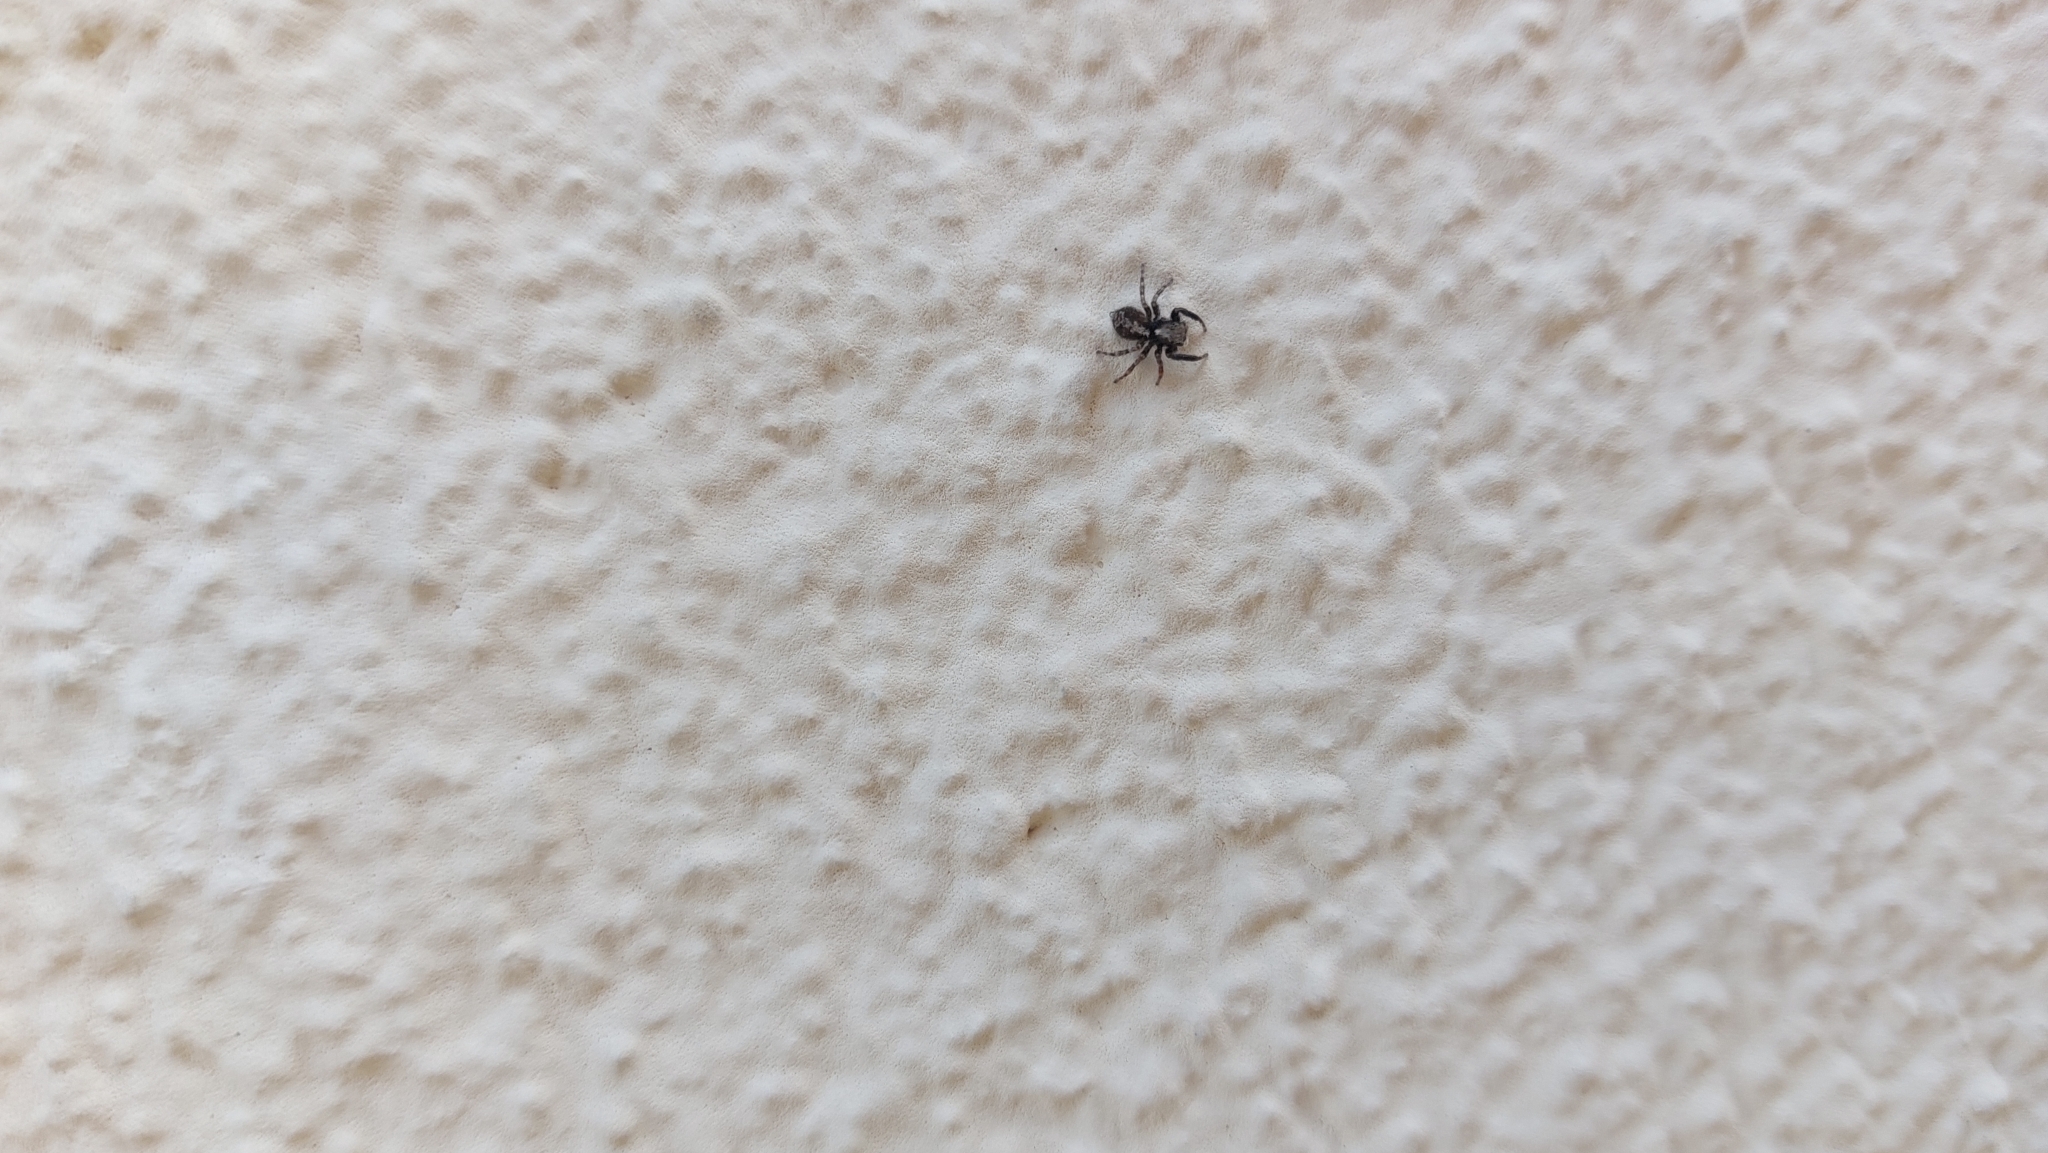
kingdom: Animalia
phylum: Arthropoda
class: Arachnida
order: Araneae
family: Salticidae
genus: Pseudeuophrys
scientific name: Pseudeuophrys lanigera
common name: Jumping spider
